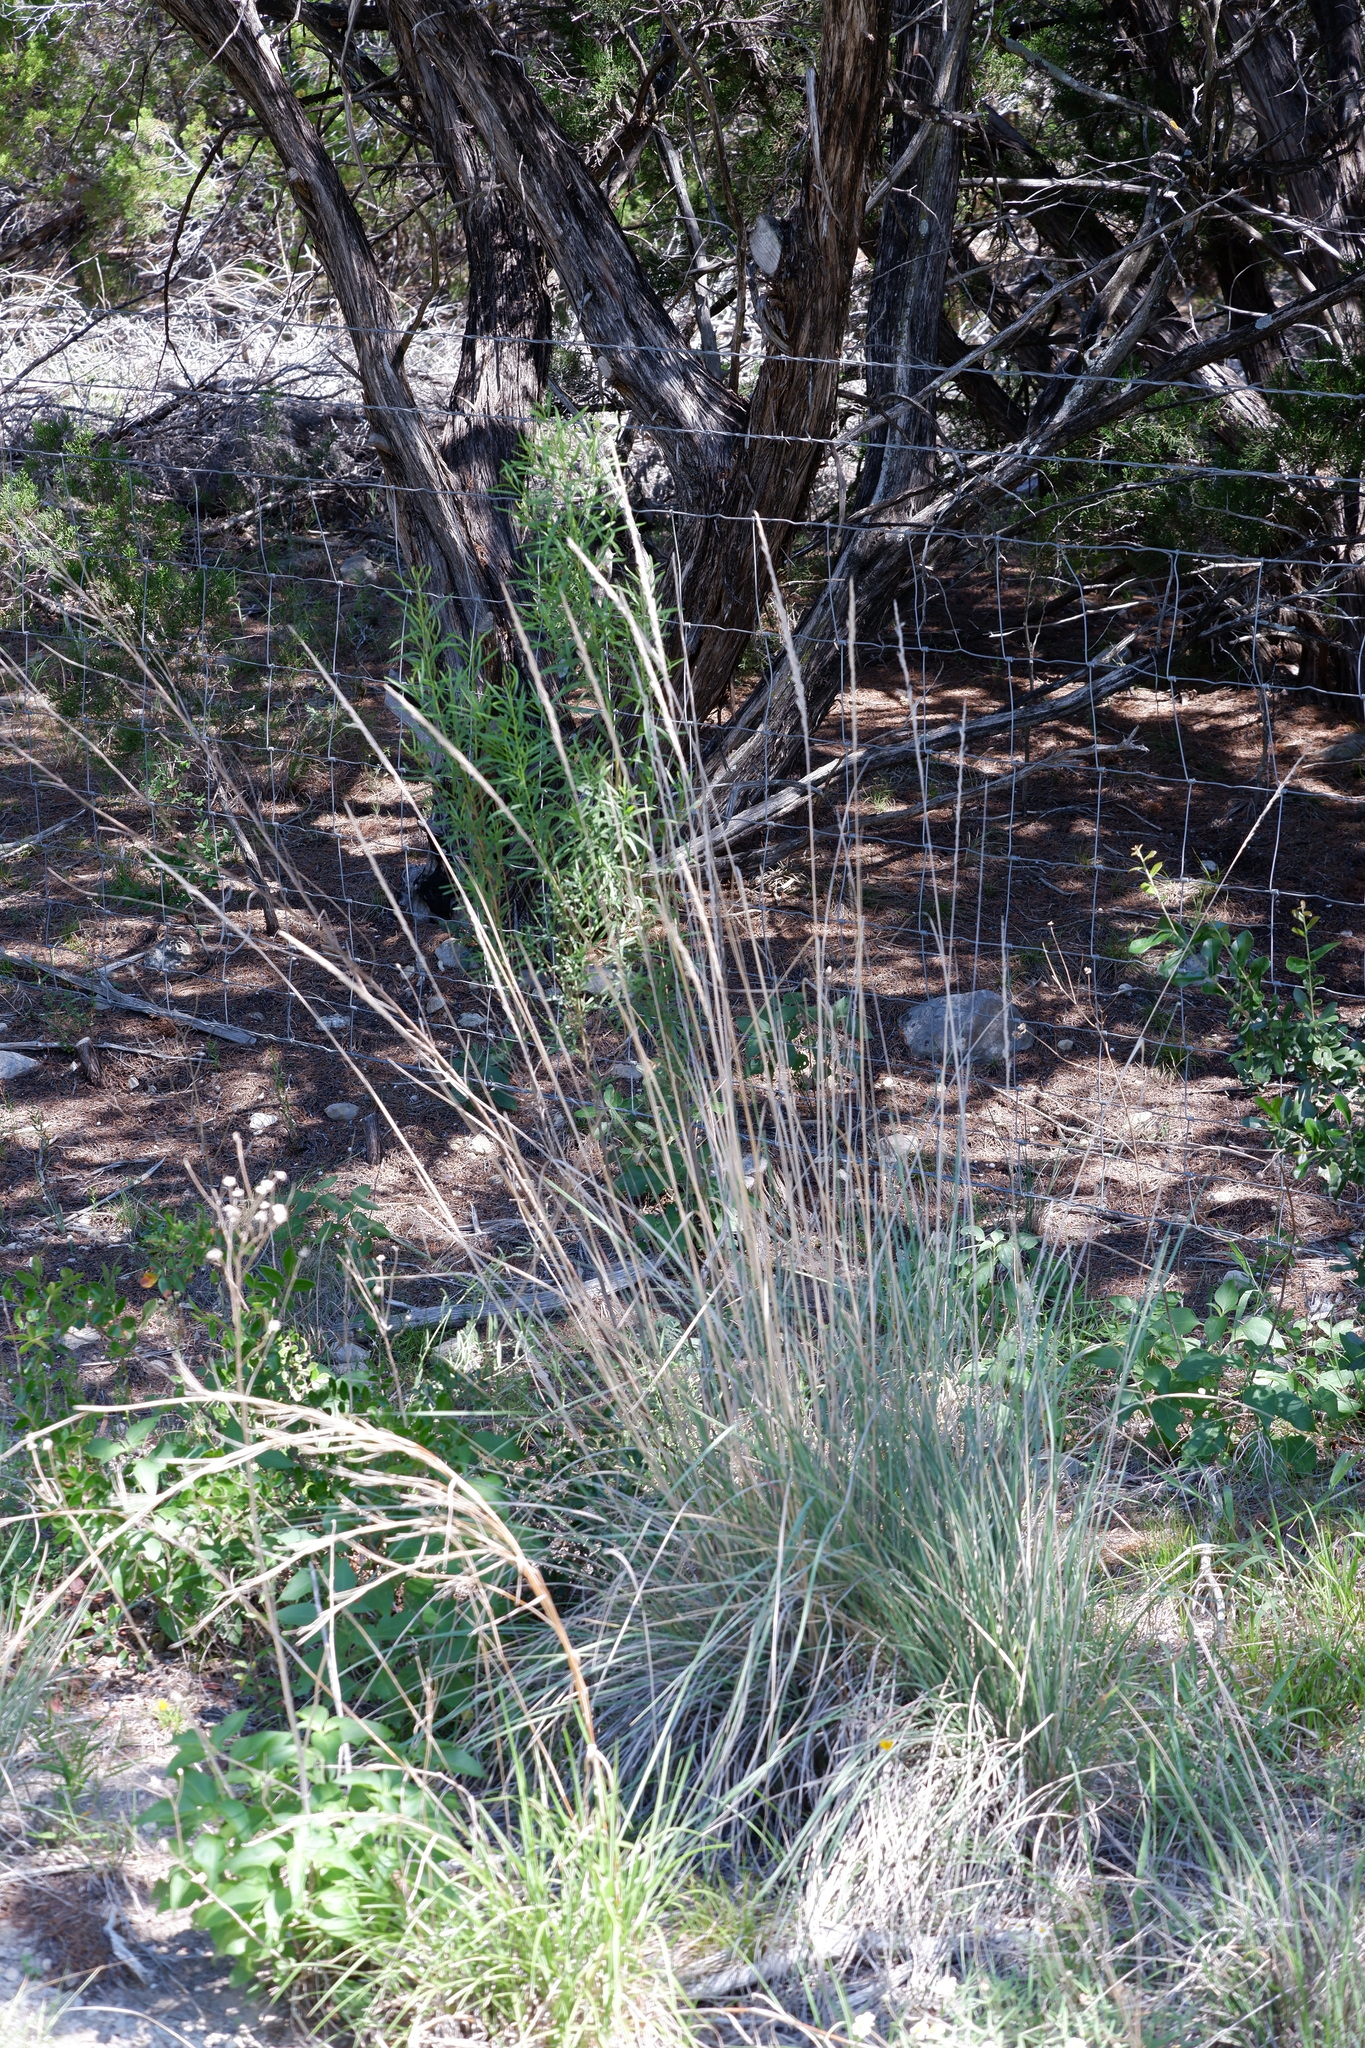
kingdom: Plantae
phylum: Tracheophyta
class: Liliopsida
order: Poales
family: Poaceae
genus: Muhlenbergia
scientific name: Muhlenbergia lindheimeri
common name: Lindheimer's muhly
